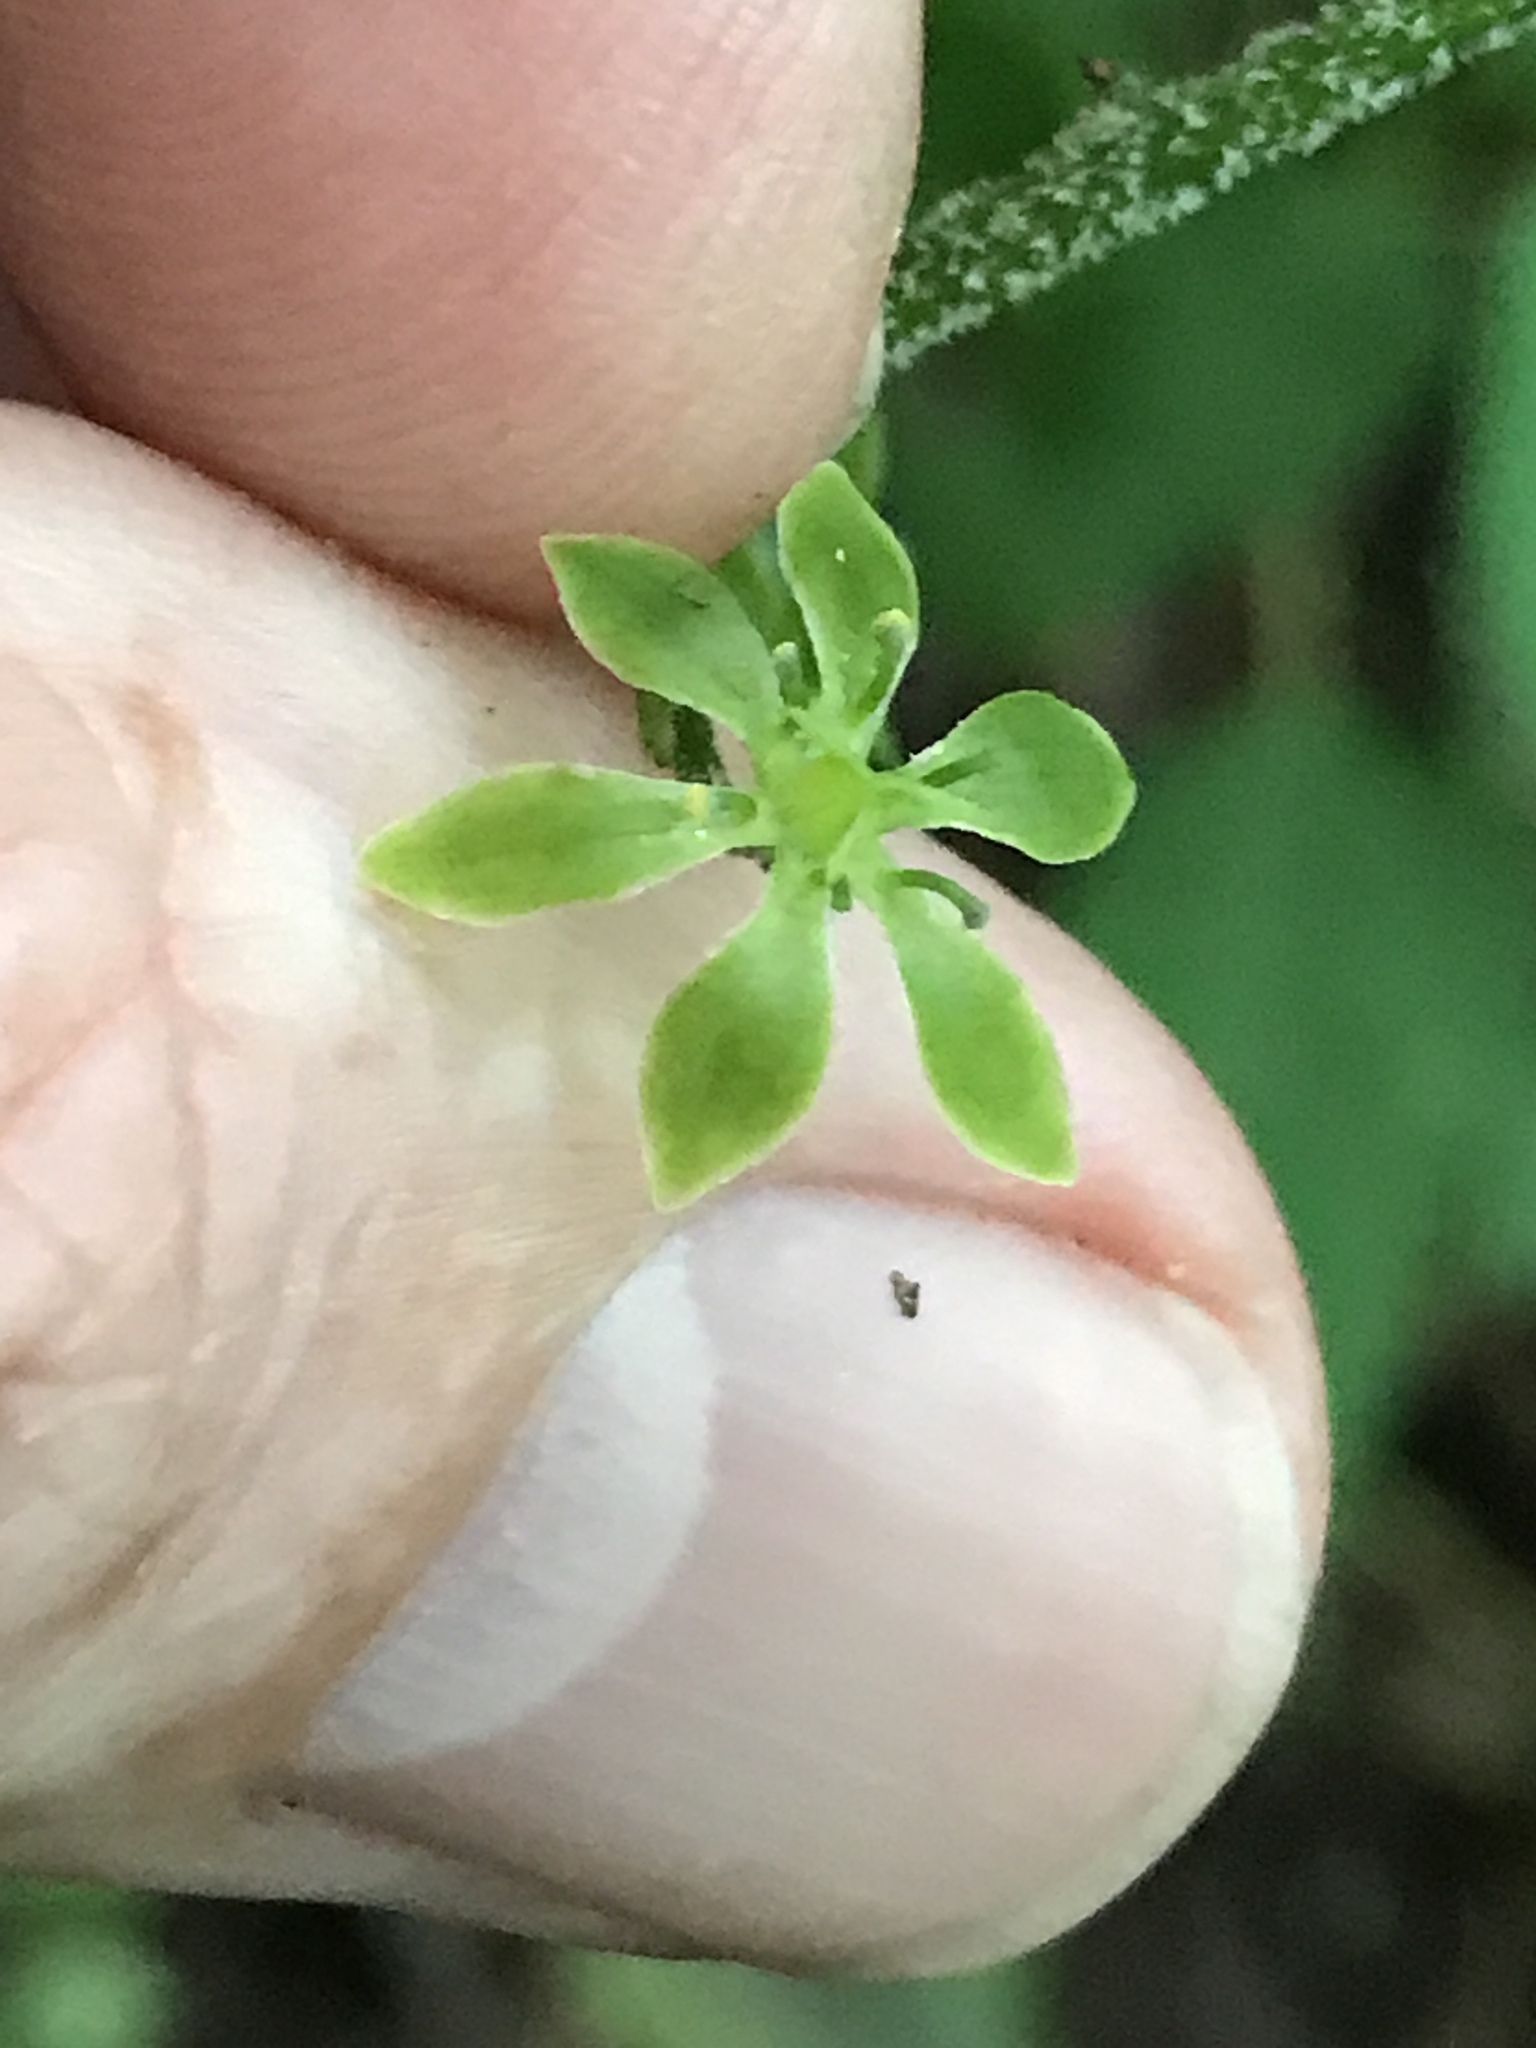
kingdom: Plantae
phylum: Tracheophyta
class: Liliopsida
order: Liliales
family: Melanthiaceae
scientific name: Melanthiaceae
